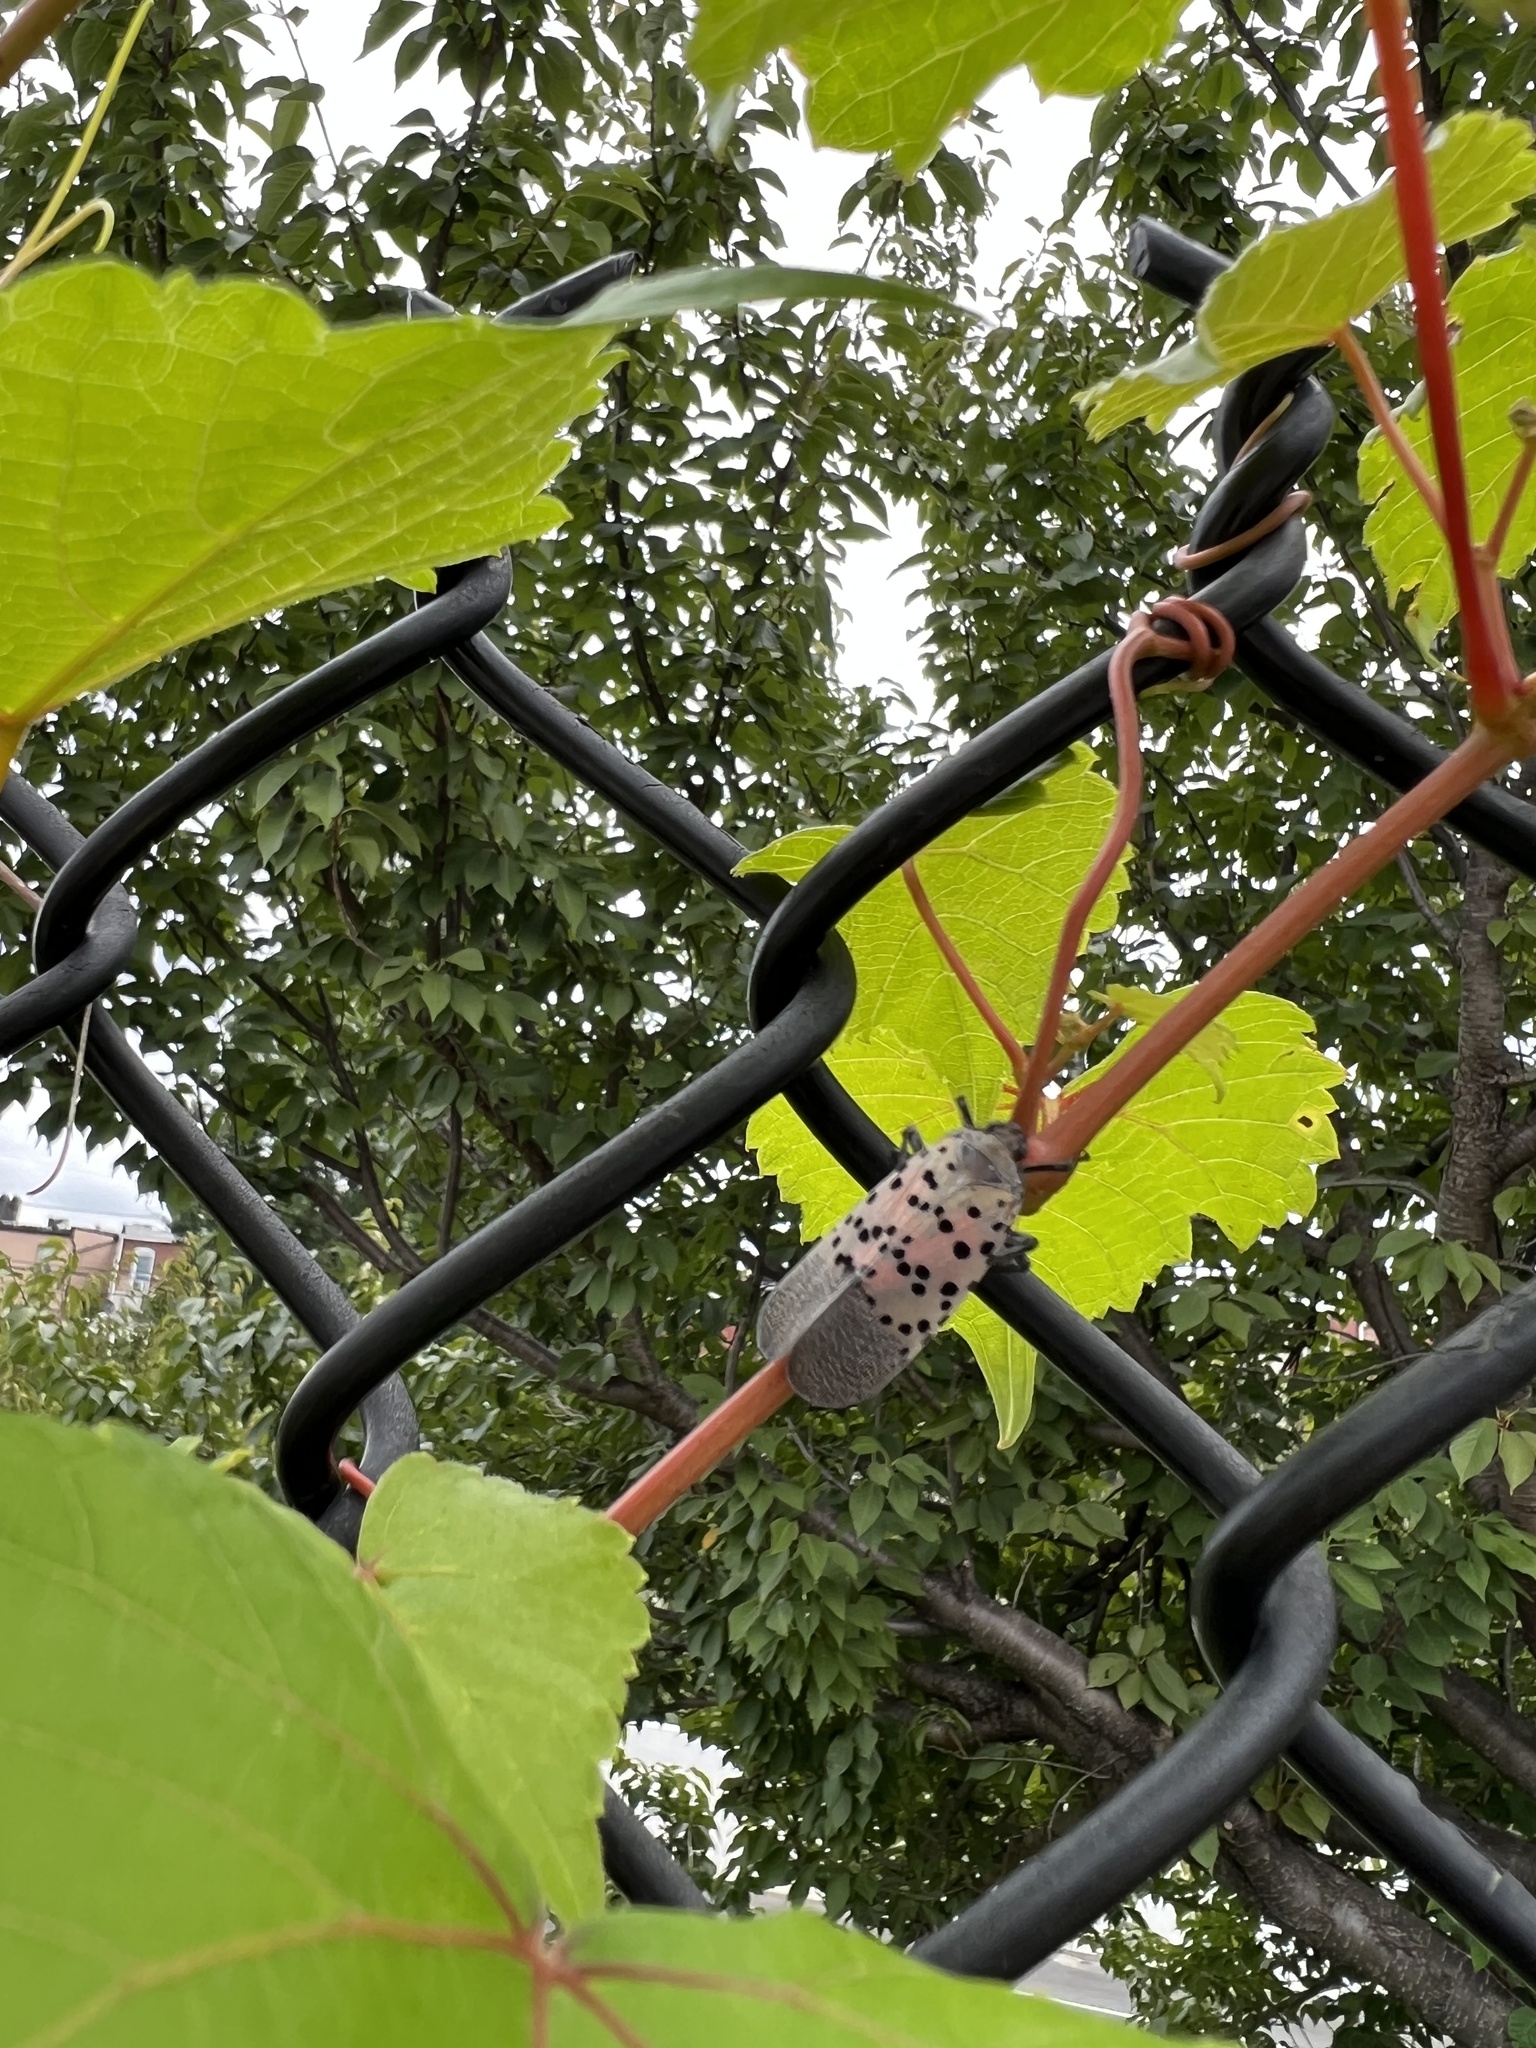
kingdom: Animalia
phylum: Arthropoda
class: Insecta
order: Hemiptera
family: Fulgoridae
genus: Lycorma
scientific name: Lycorma delicatula
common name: Spotted lanternfly
